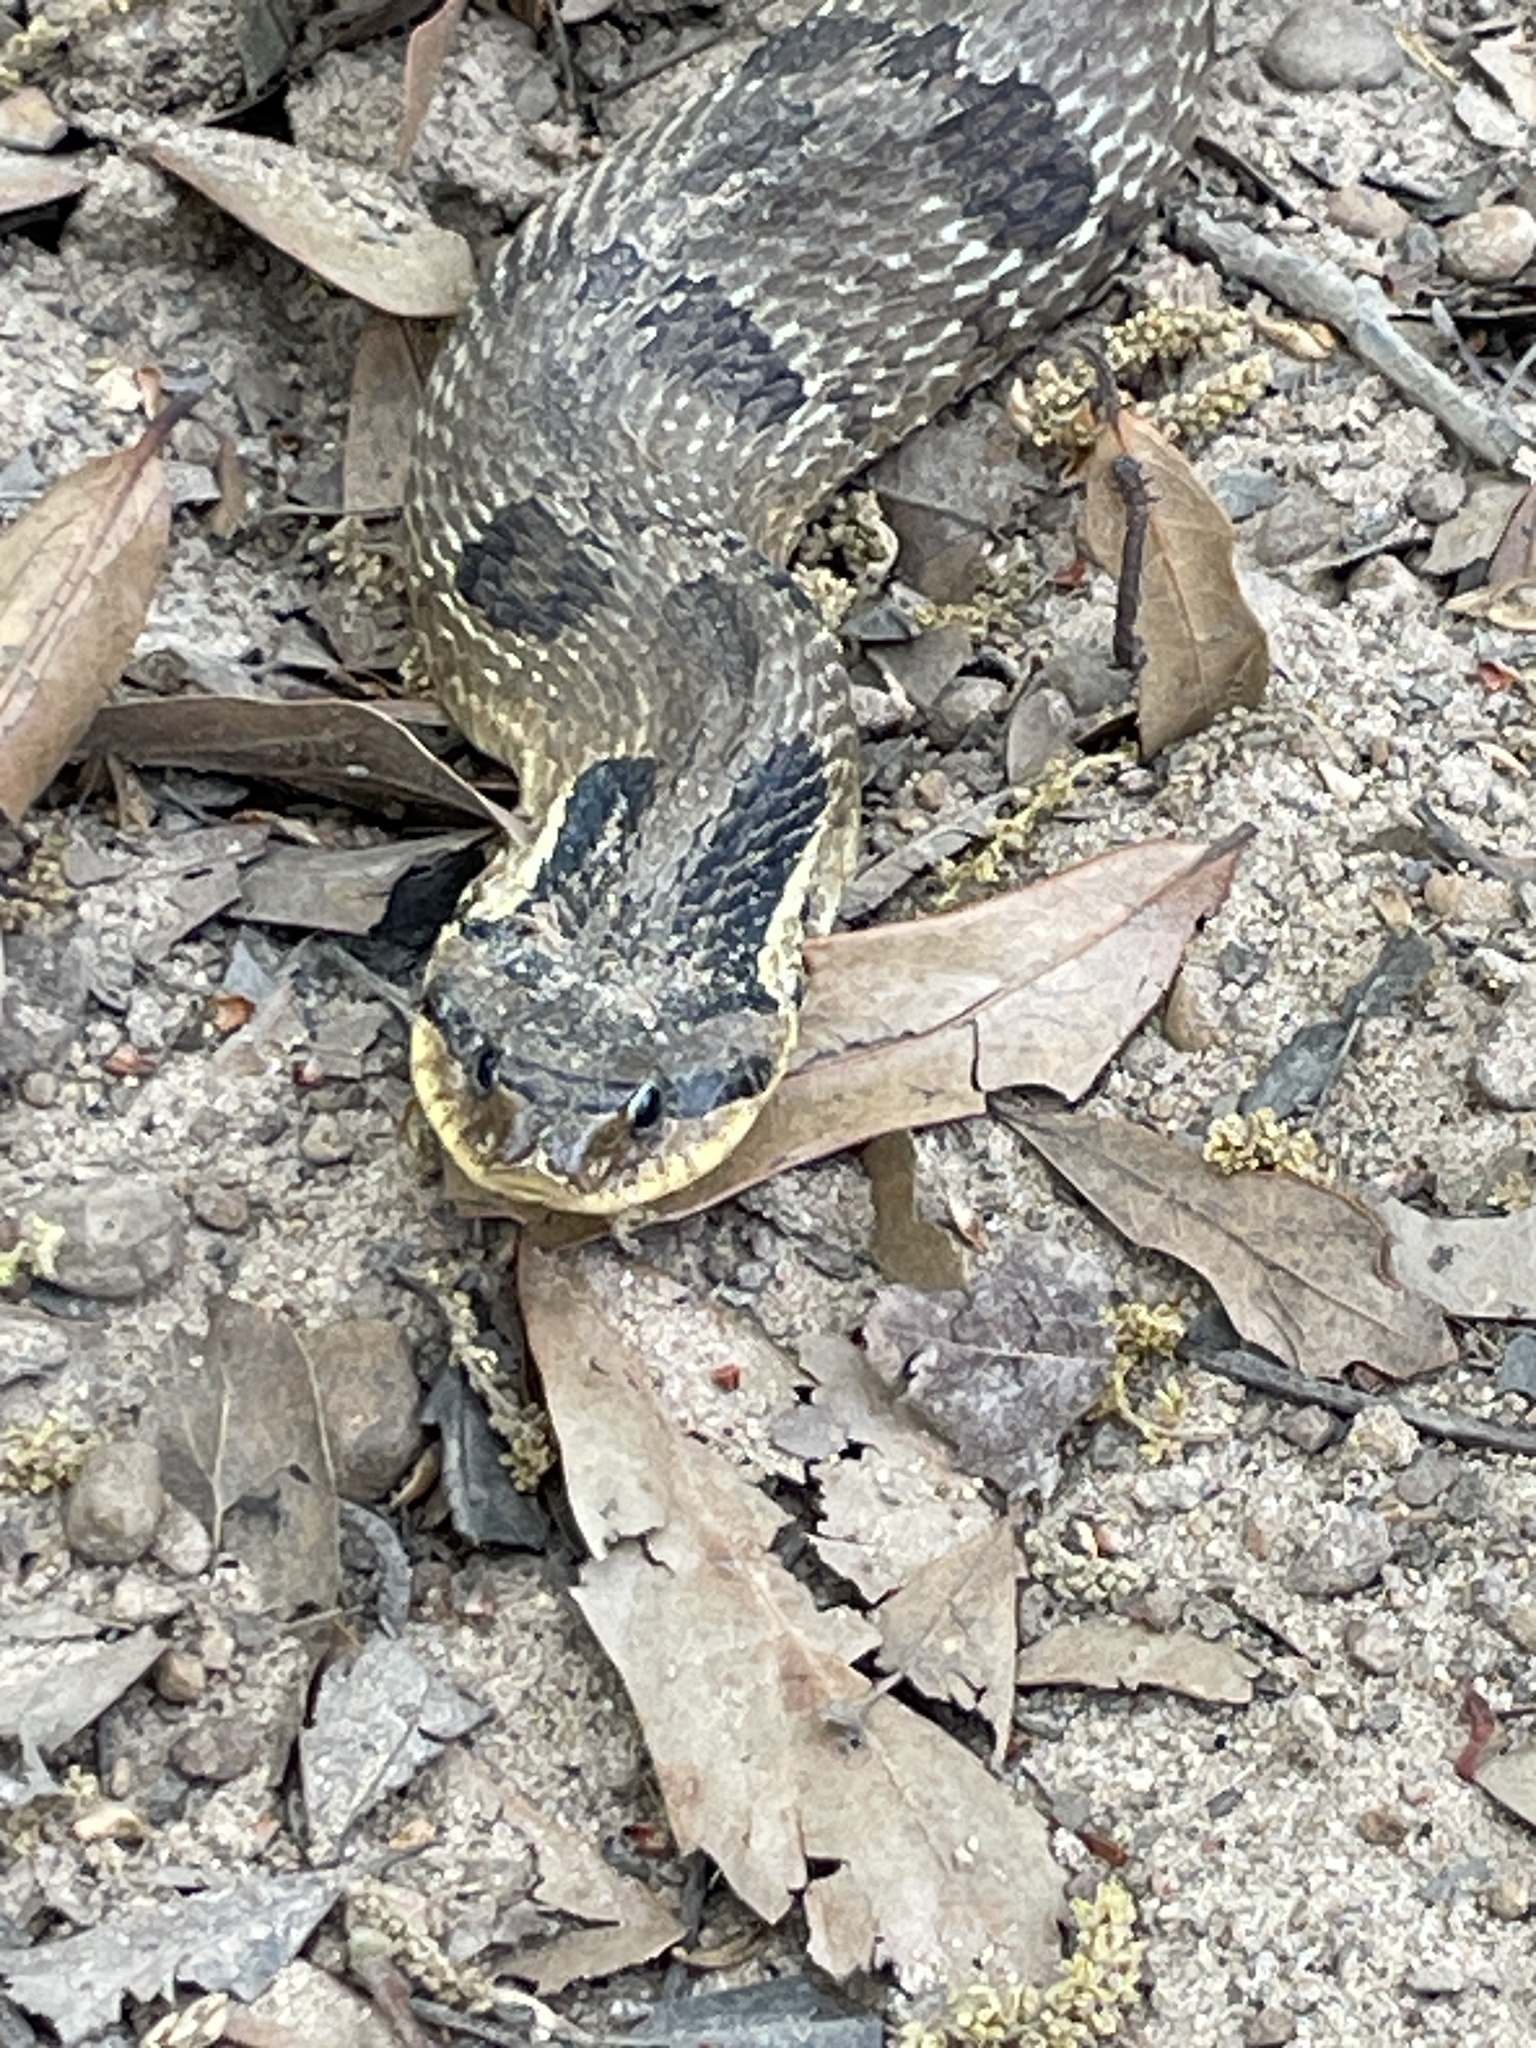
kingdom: Animalia
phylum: Chordata
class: Squamata
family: Colubridae
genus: Heterodon
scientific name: Heterodon platirhinos
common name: Eastern hognose snake
